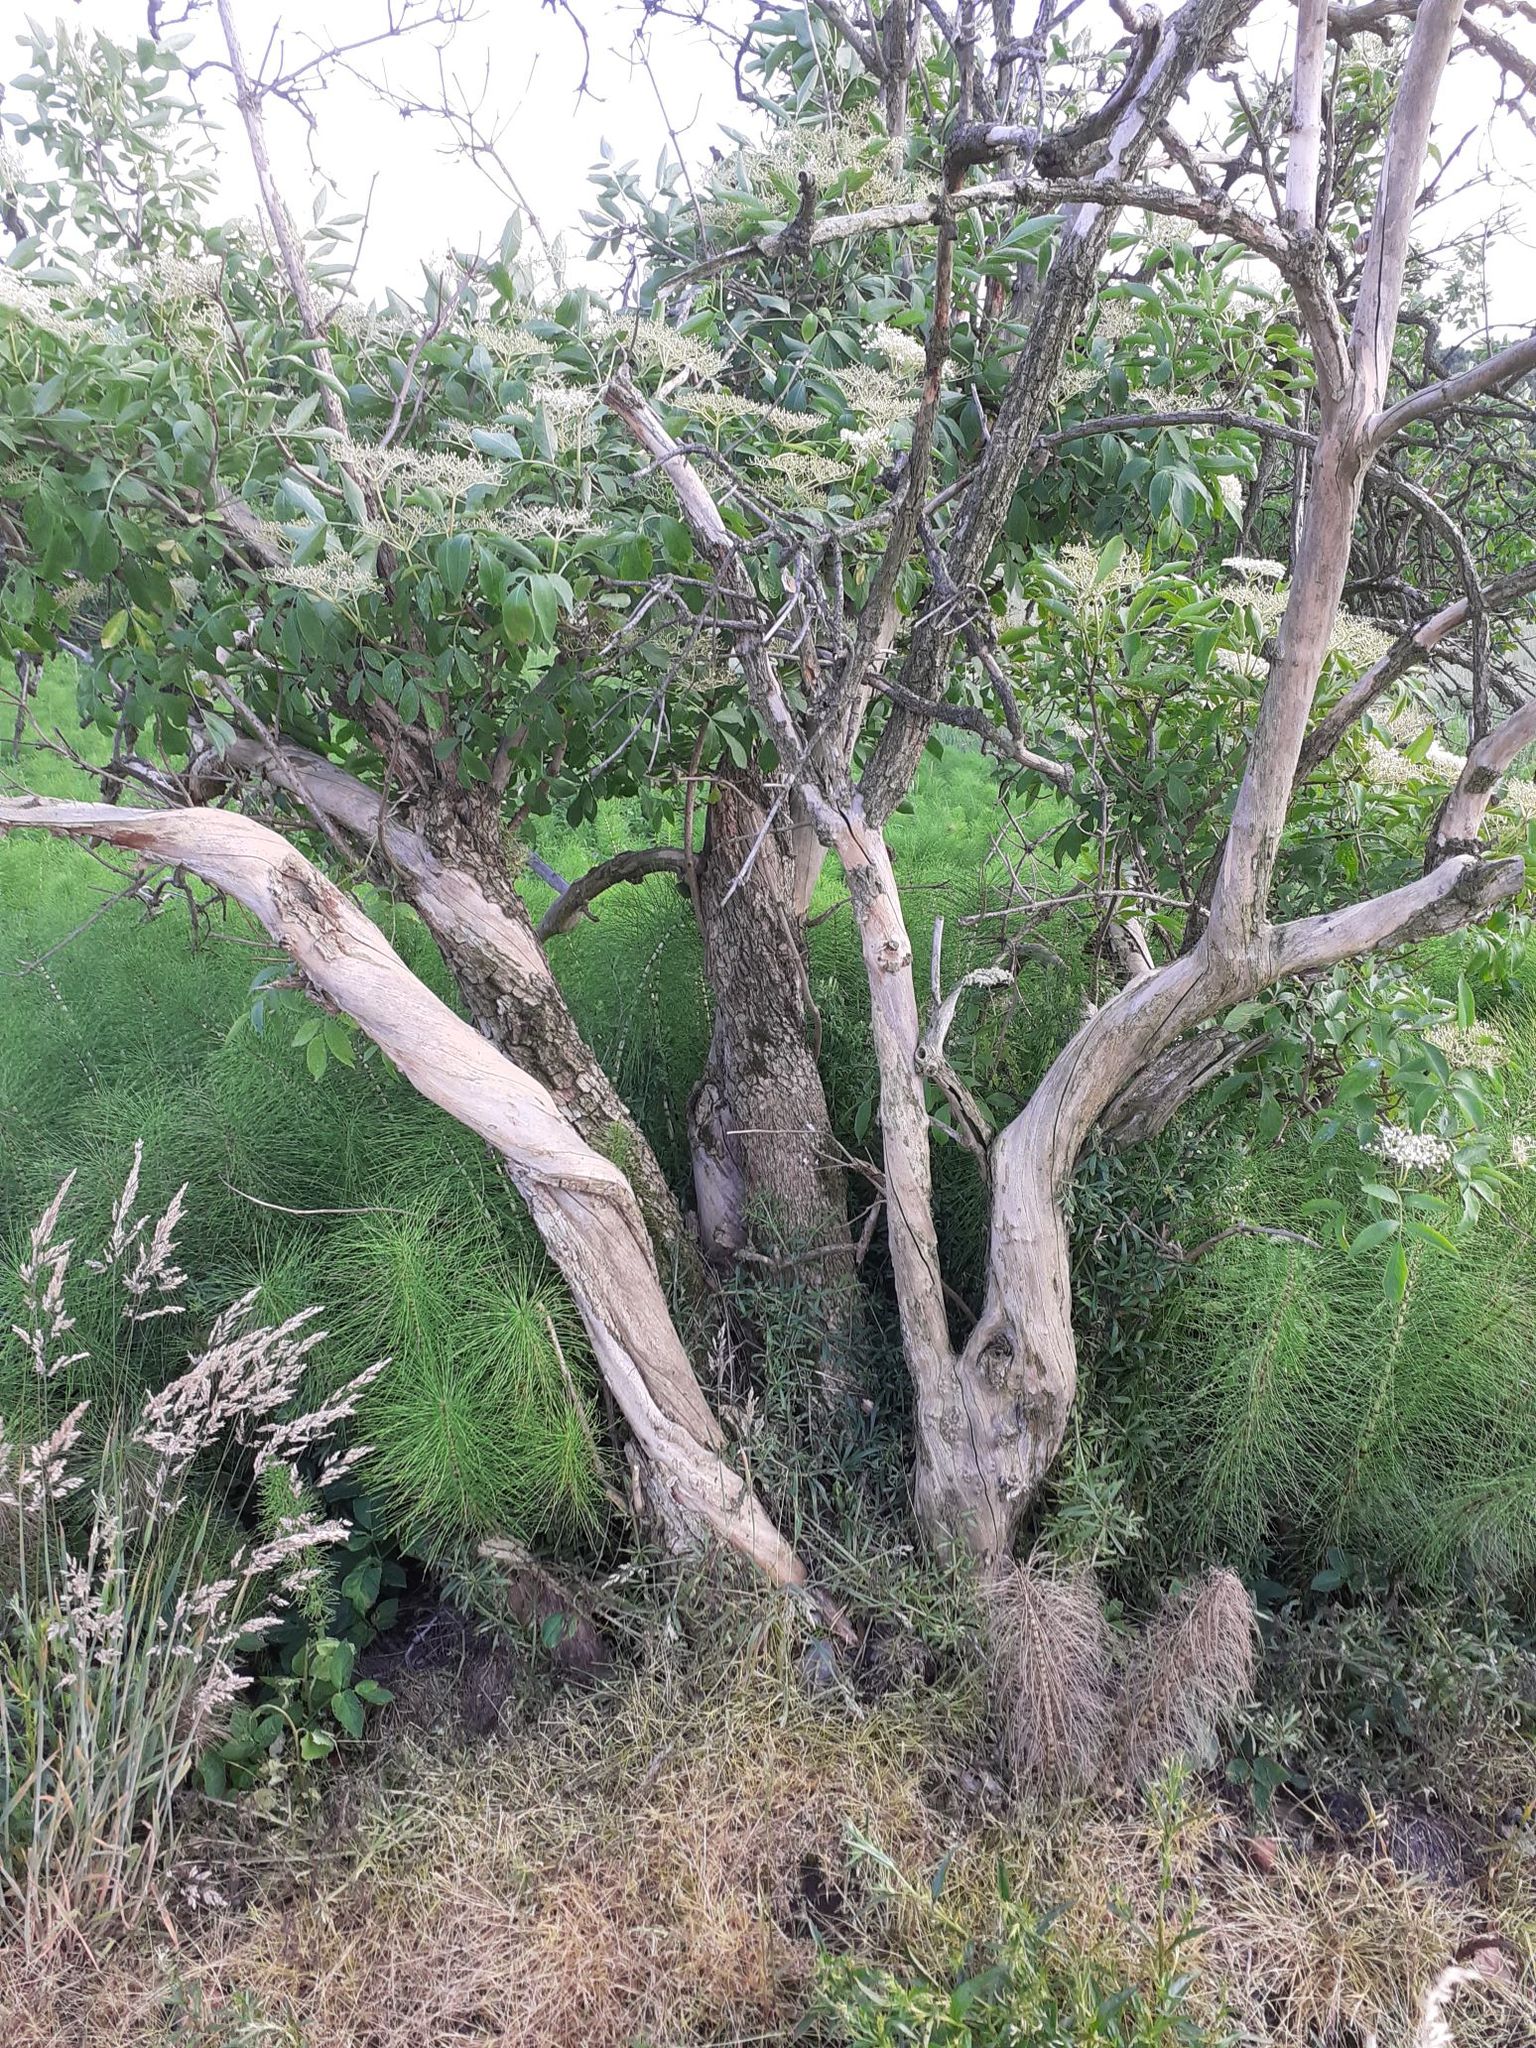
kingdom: Plantae
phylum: Tracheophyta
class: Magnoliopsida
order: Dipsacales
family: Viburnaceae
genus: Sambucus
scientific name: Sambucus nigra
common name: Elder
